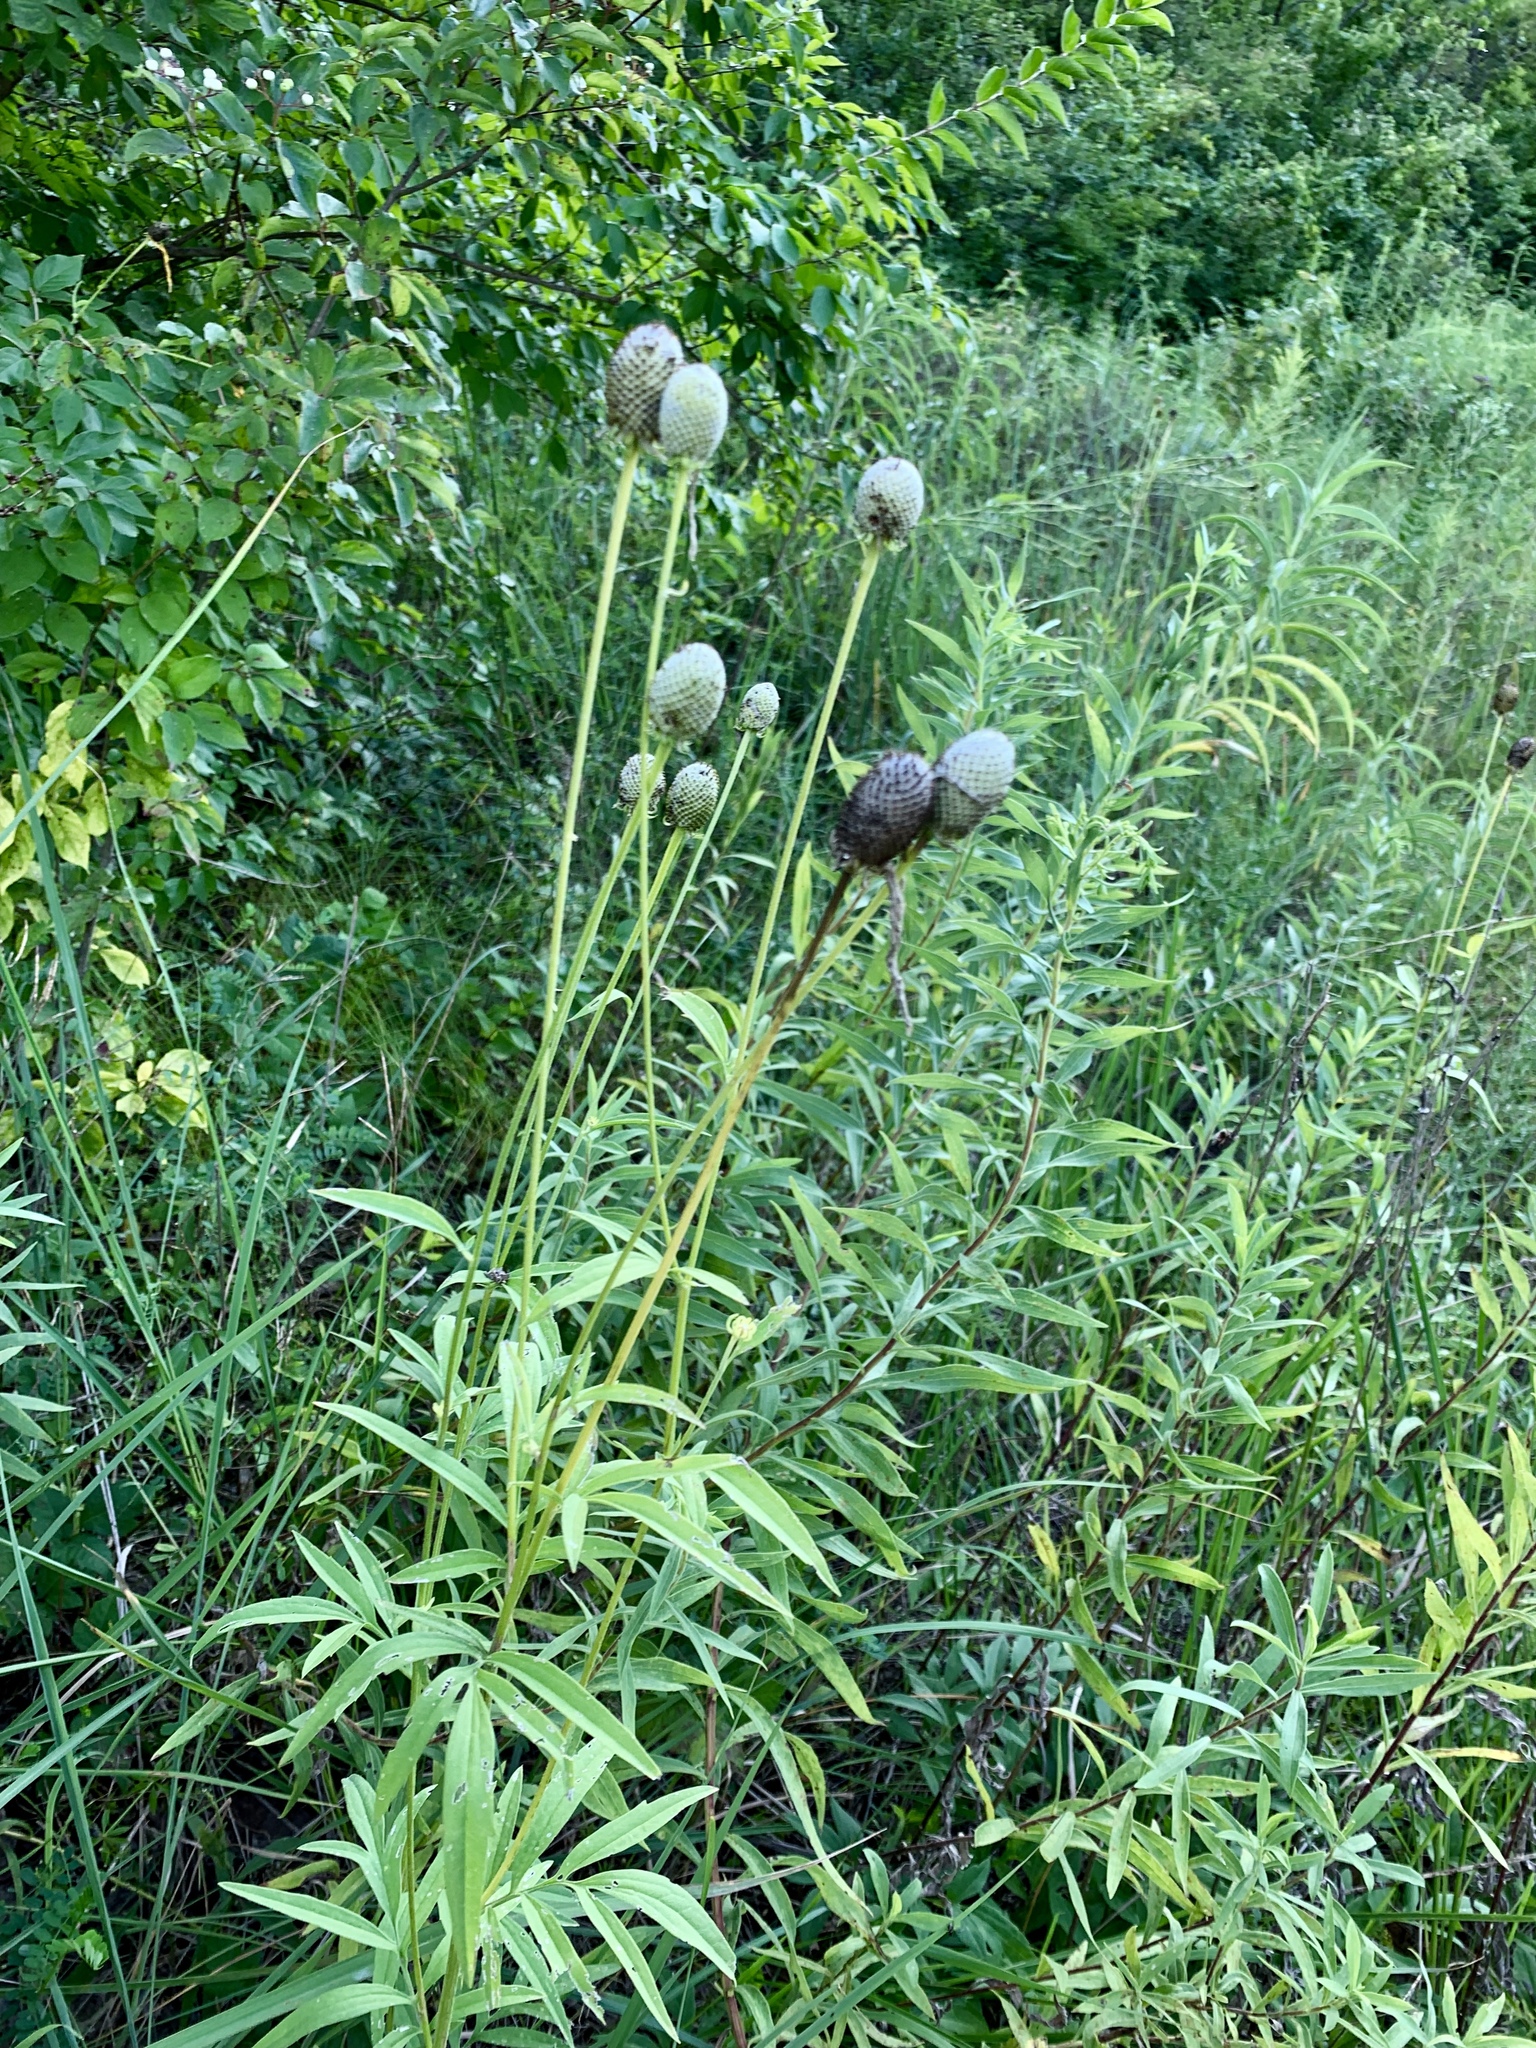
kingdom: Plantae
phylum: Tracheophyta
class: Magnoliopsida
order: Asterales
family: Asteraceae
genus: Ratibida
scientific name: Ratibida pinnata
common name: Drooping prairie-coneflower
